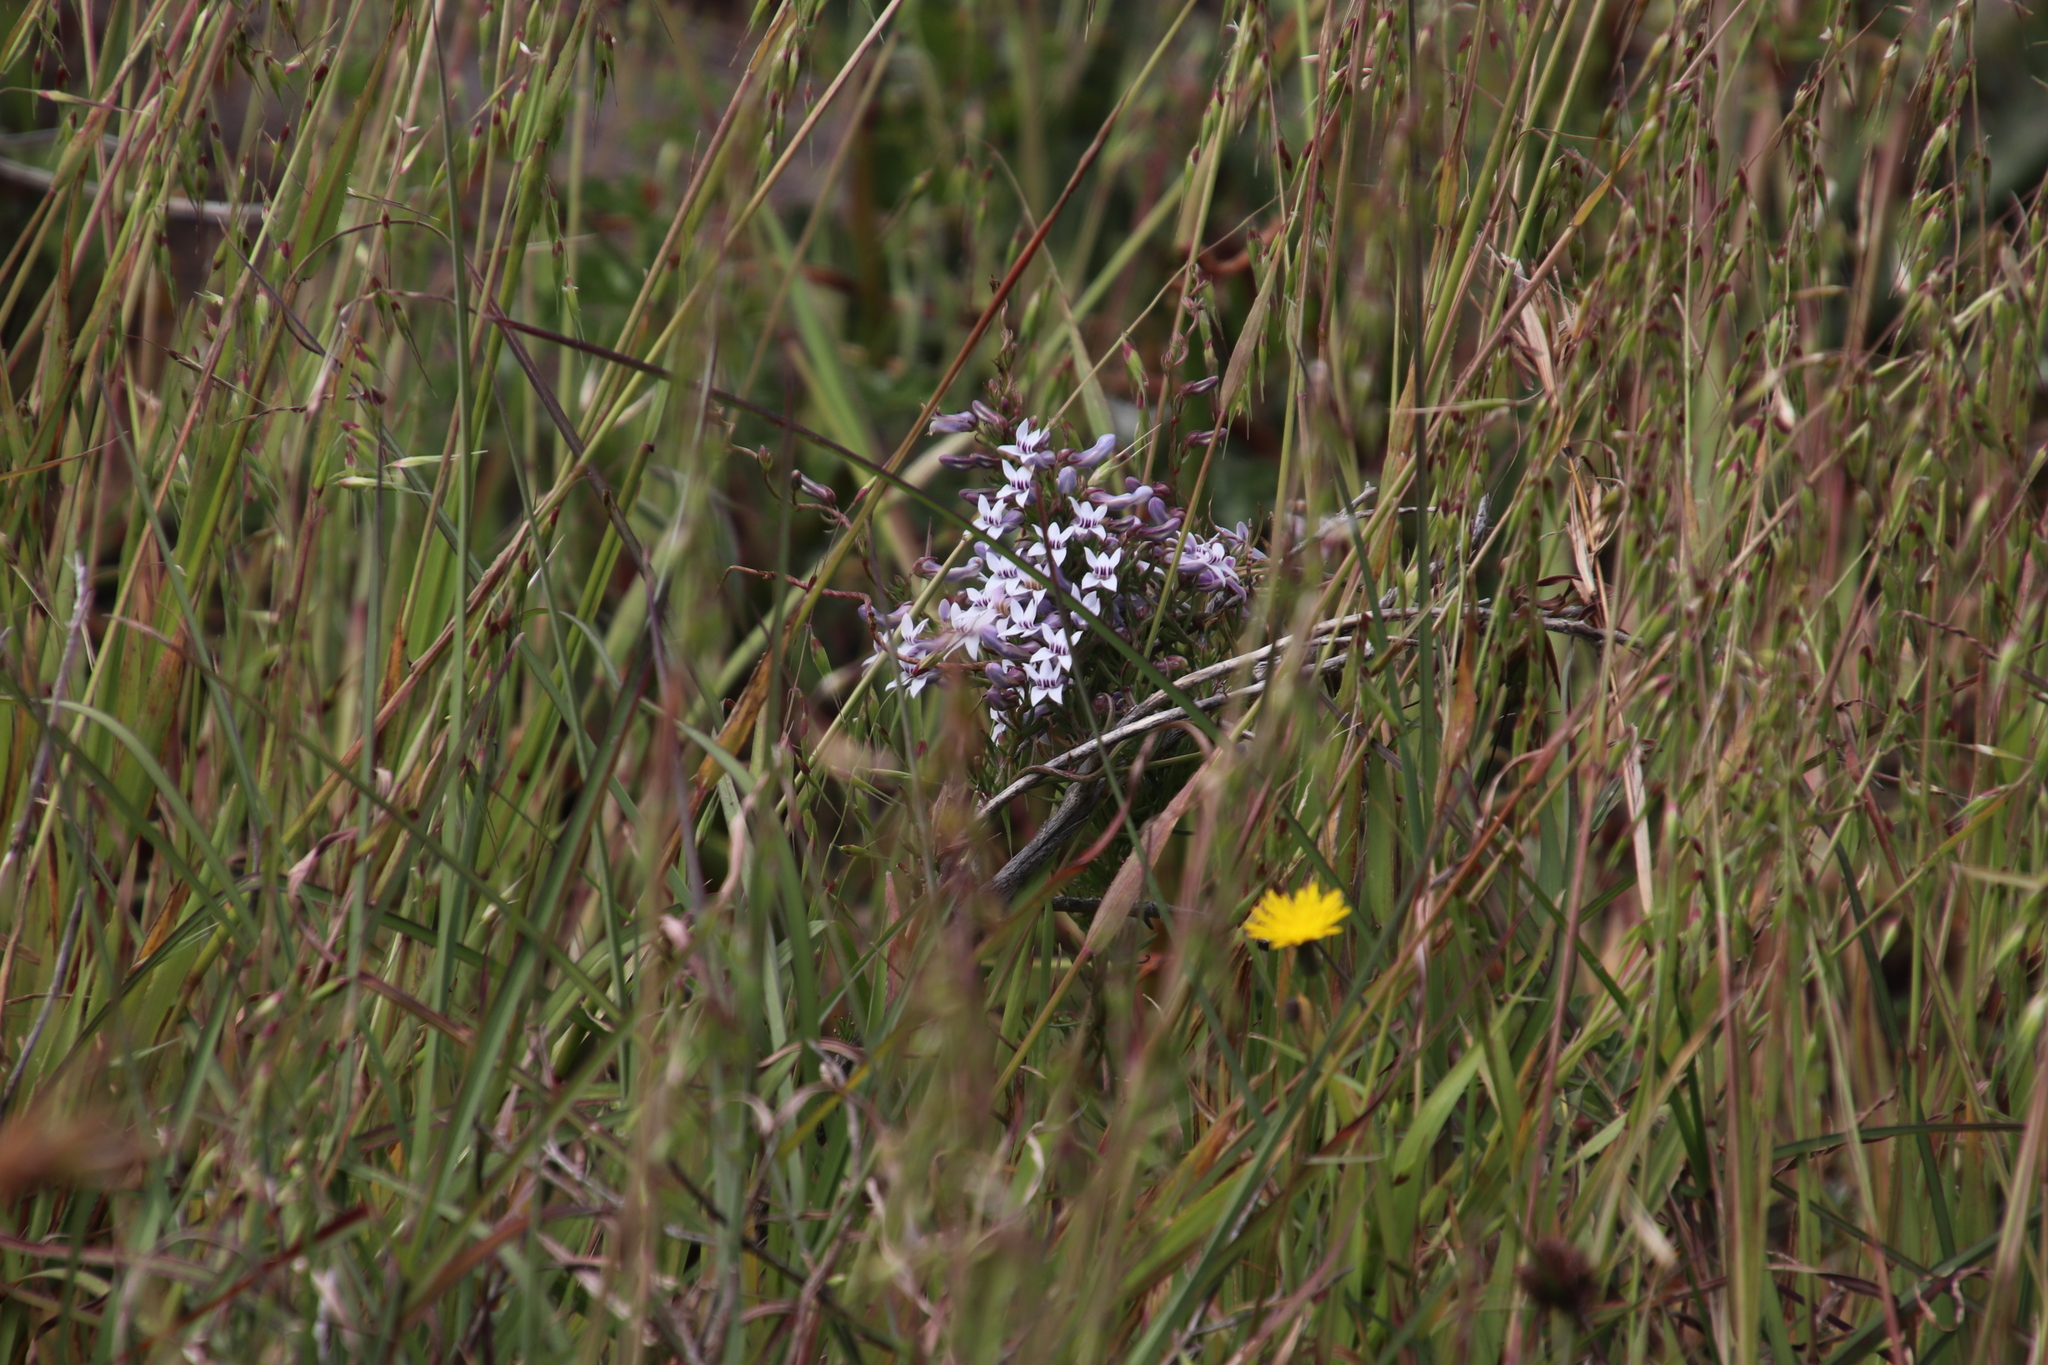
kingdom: Plantae
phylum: Tracheophyta
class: Magnoliopsida
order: Asterales
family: Campanulaceae
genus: Cyphia
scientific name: Cyphia digitata
